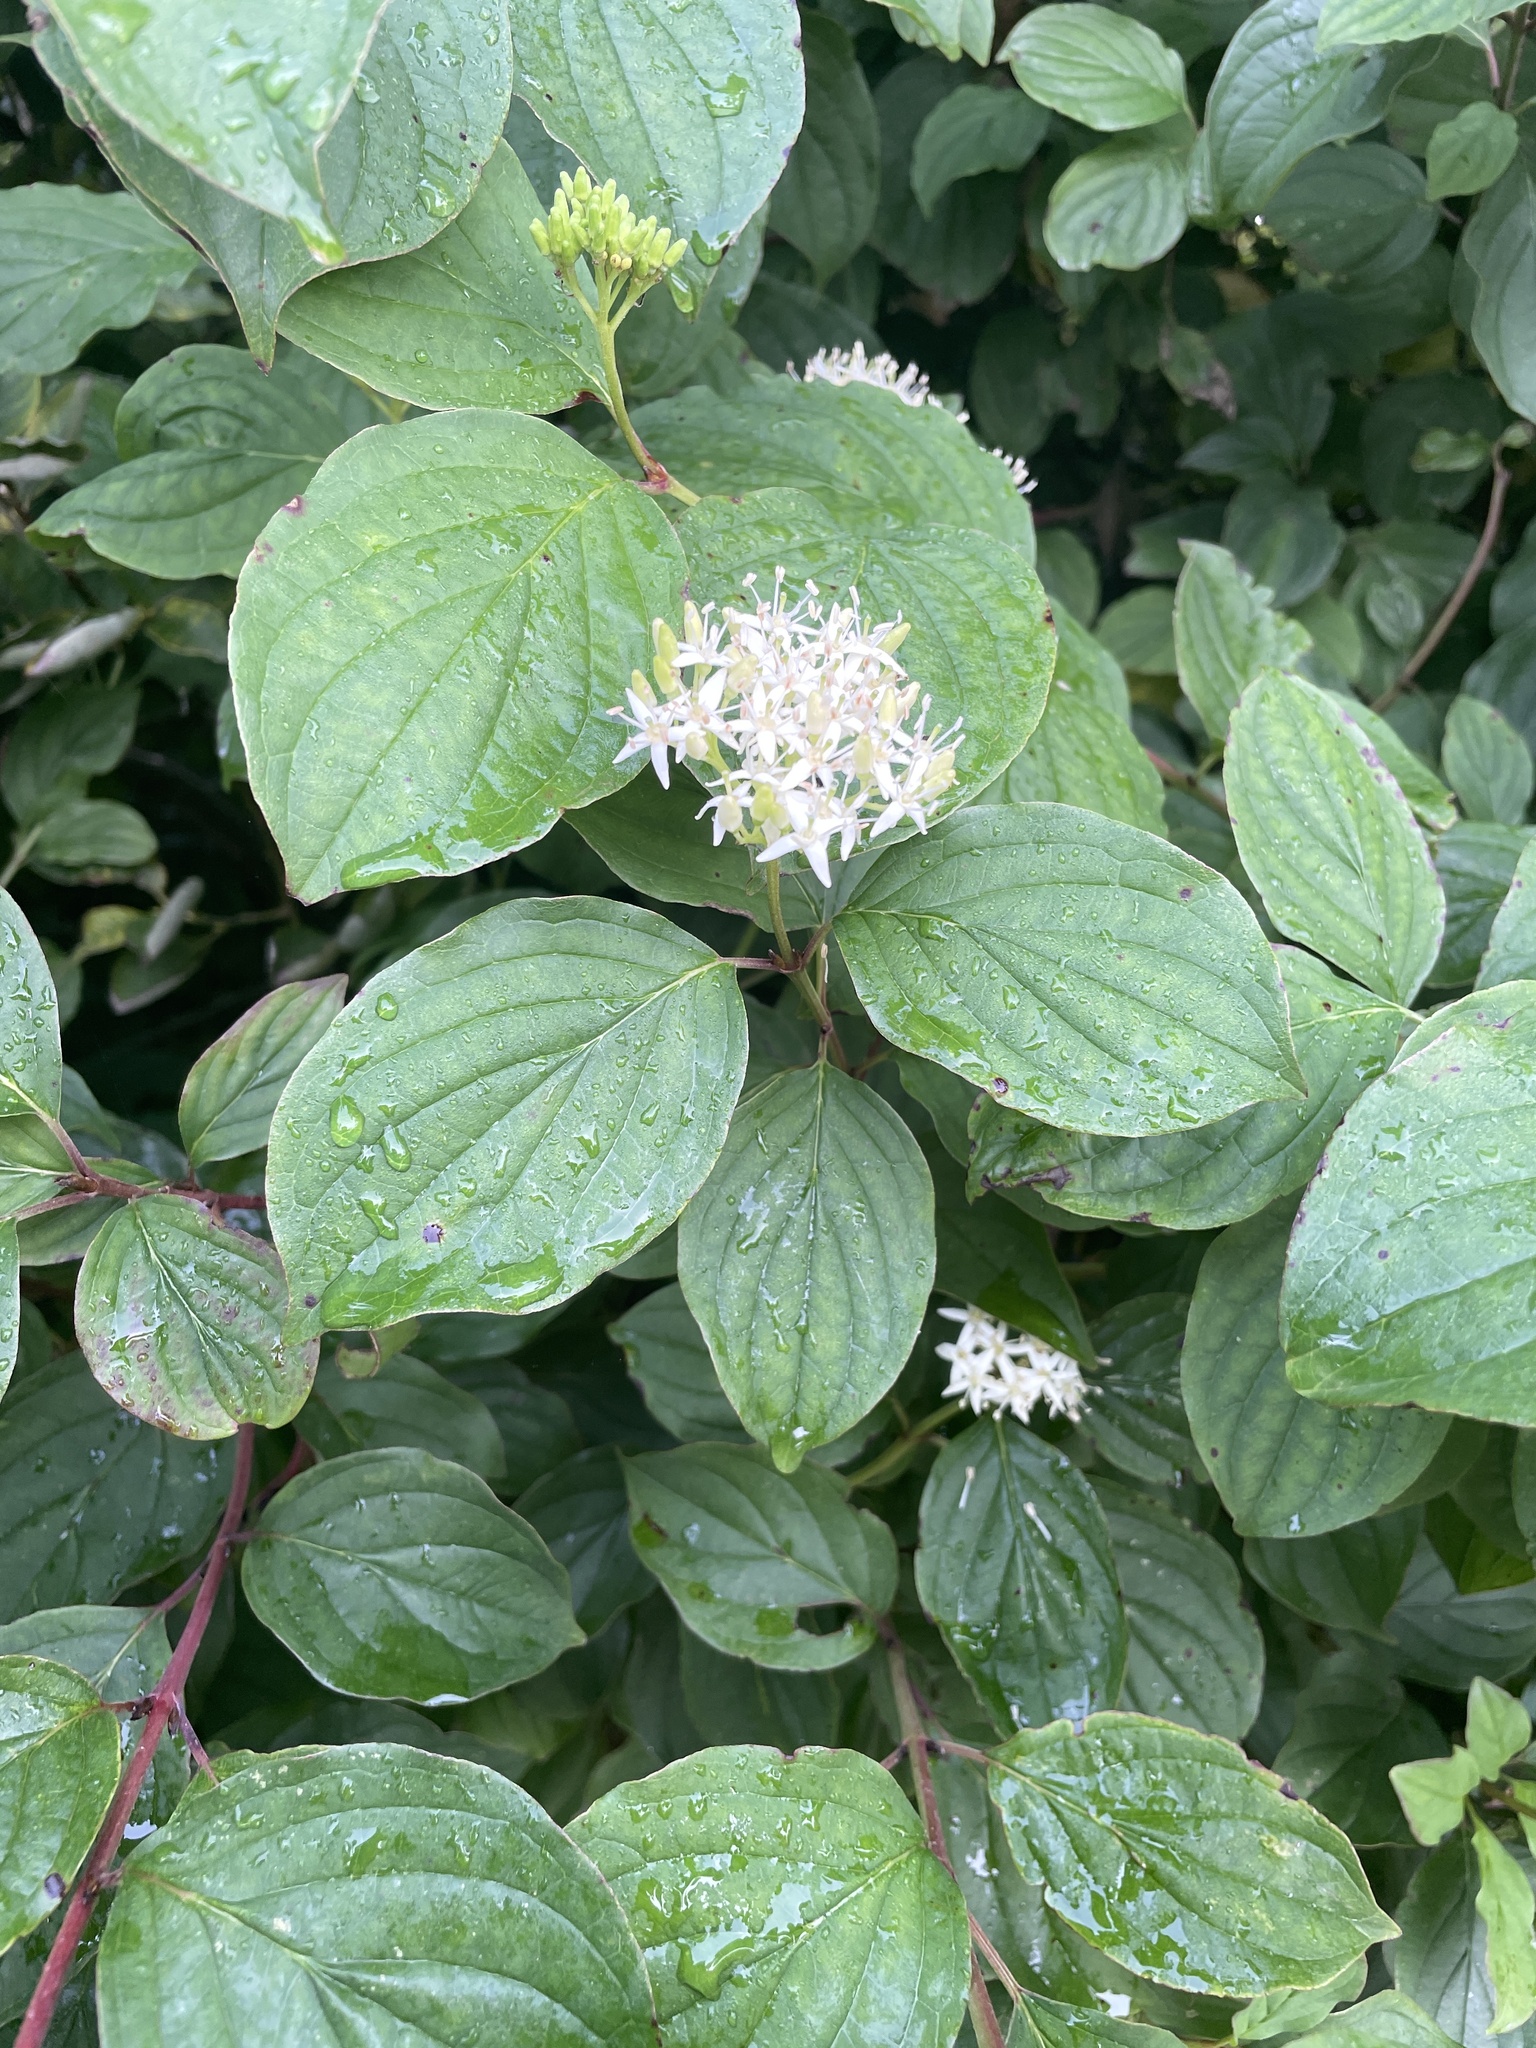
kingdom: Plantae
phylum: Tracheophyta
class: Magnoliopsida
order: Cornales
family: Cornaceae
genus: Cornus
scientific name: Cornus sanguinea
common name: Dogwood
